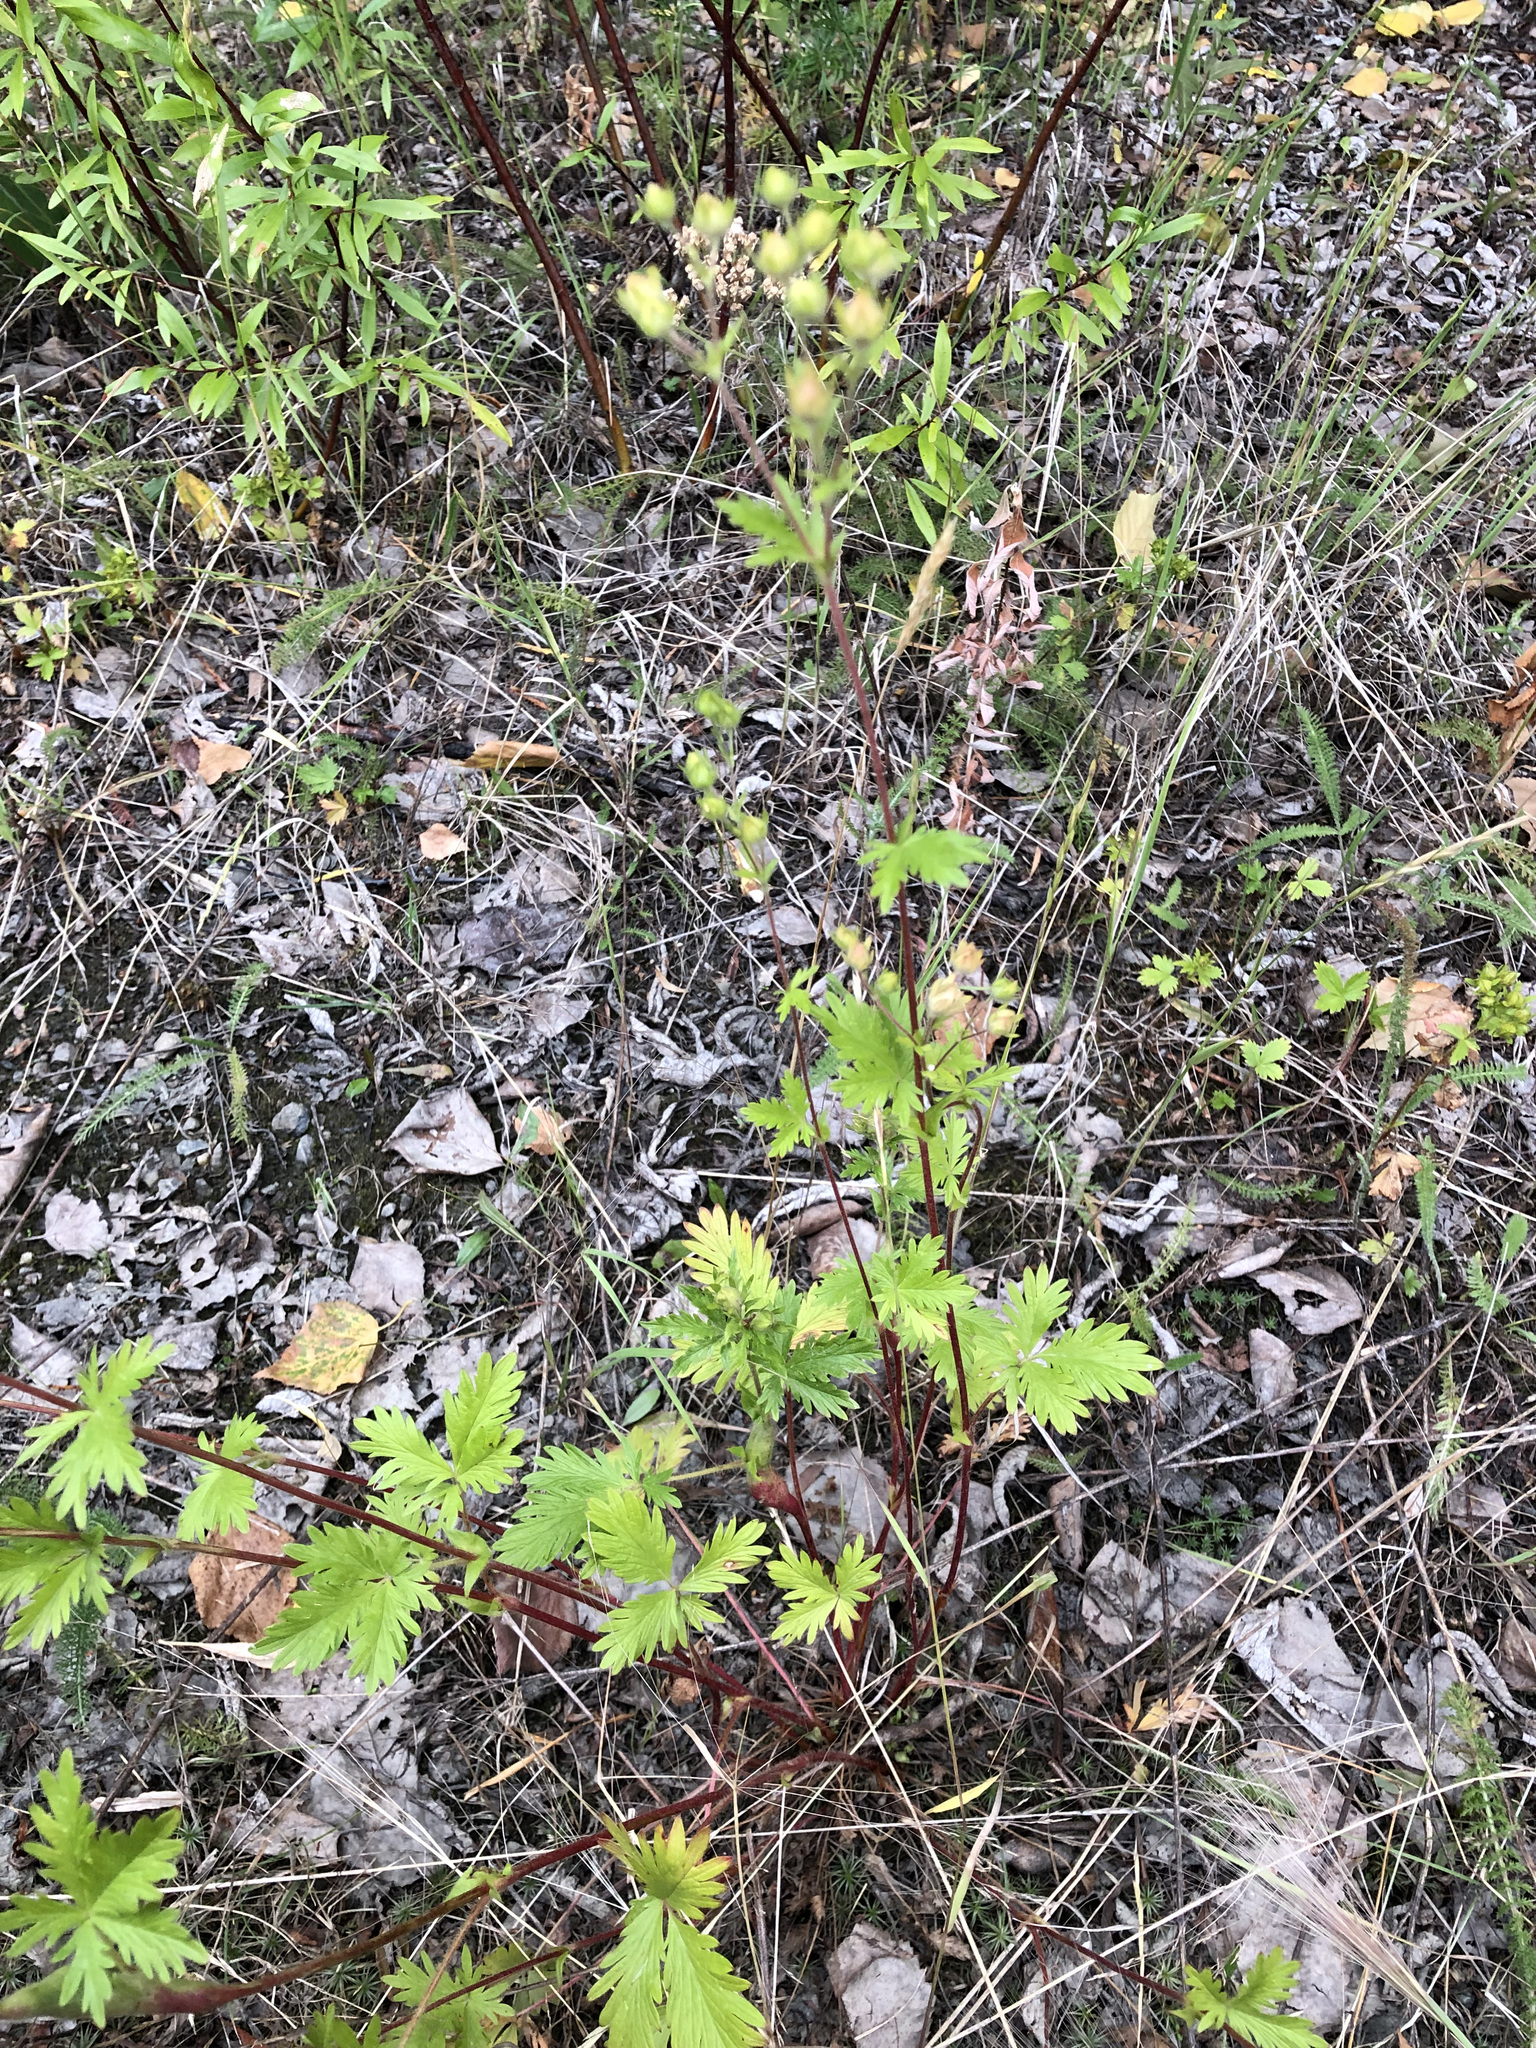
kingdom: Plantae
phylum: Tracheophyta
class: Magnoliopsida
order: Rosales
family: Rosaceae
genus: Potentilla
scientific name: Potentilla gracilis
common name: Graceful cinquefoil
